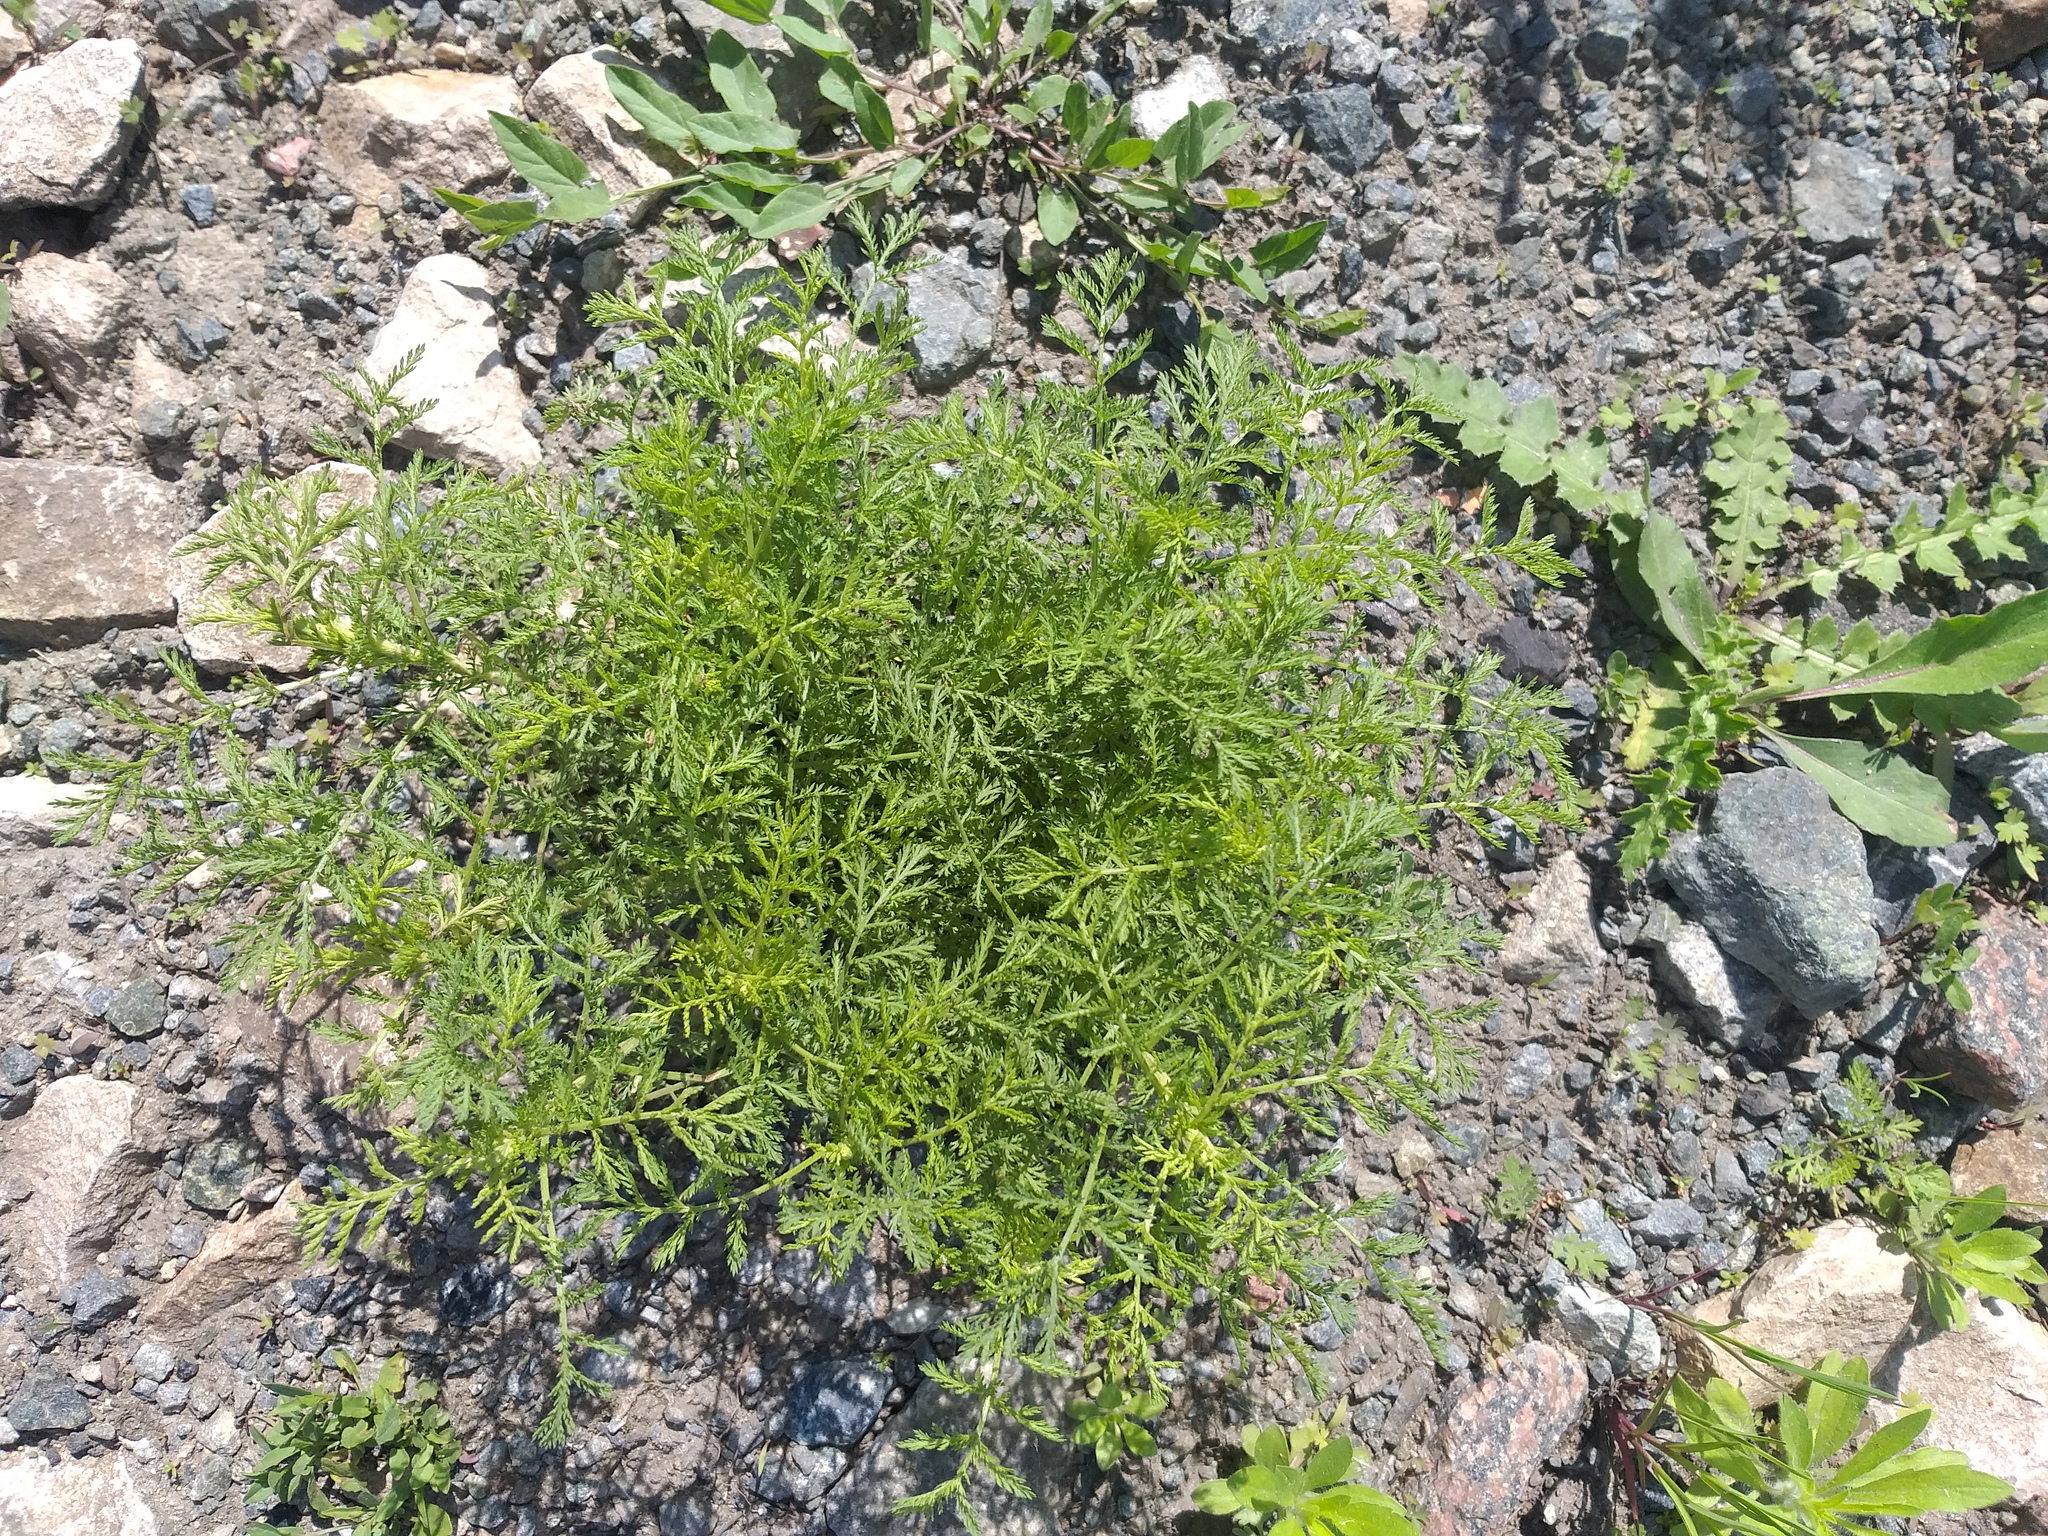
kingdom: Plantae
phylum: Tracheophyta
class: Magnoliopsida
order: Asterales
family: Asteraceae
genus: Achillea
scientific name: Achillea nobilis
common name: Noble yarrow
